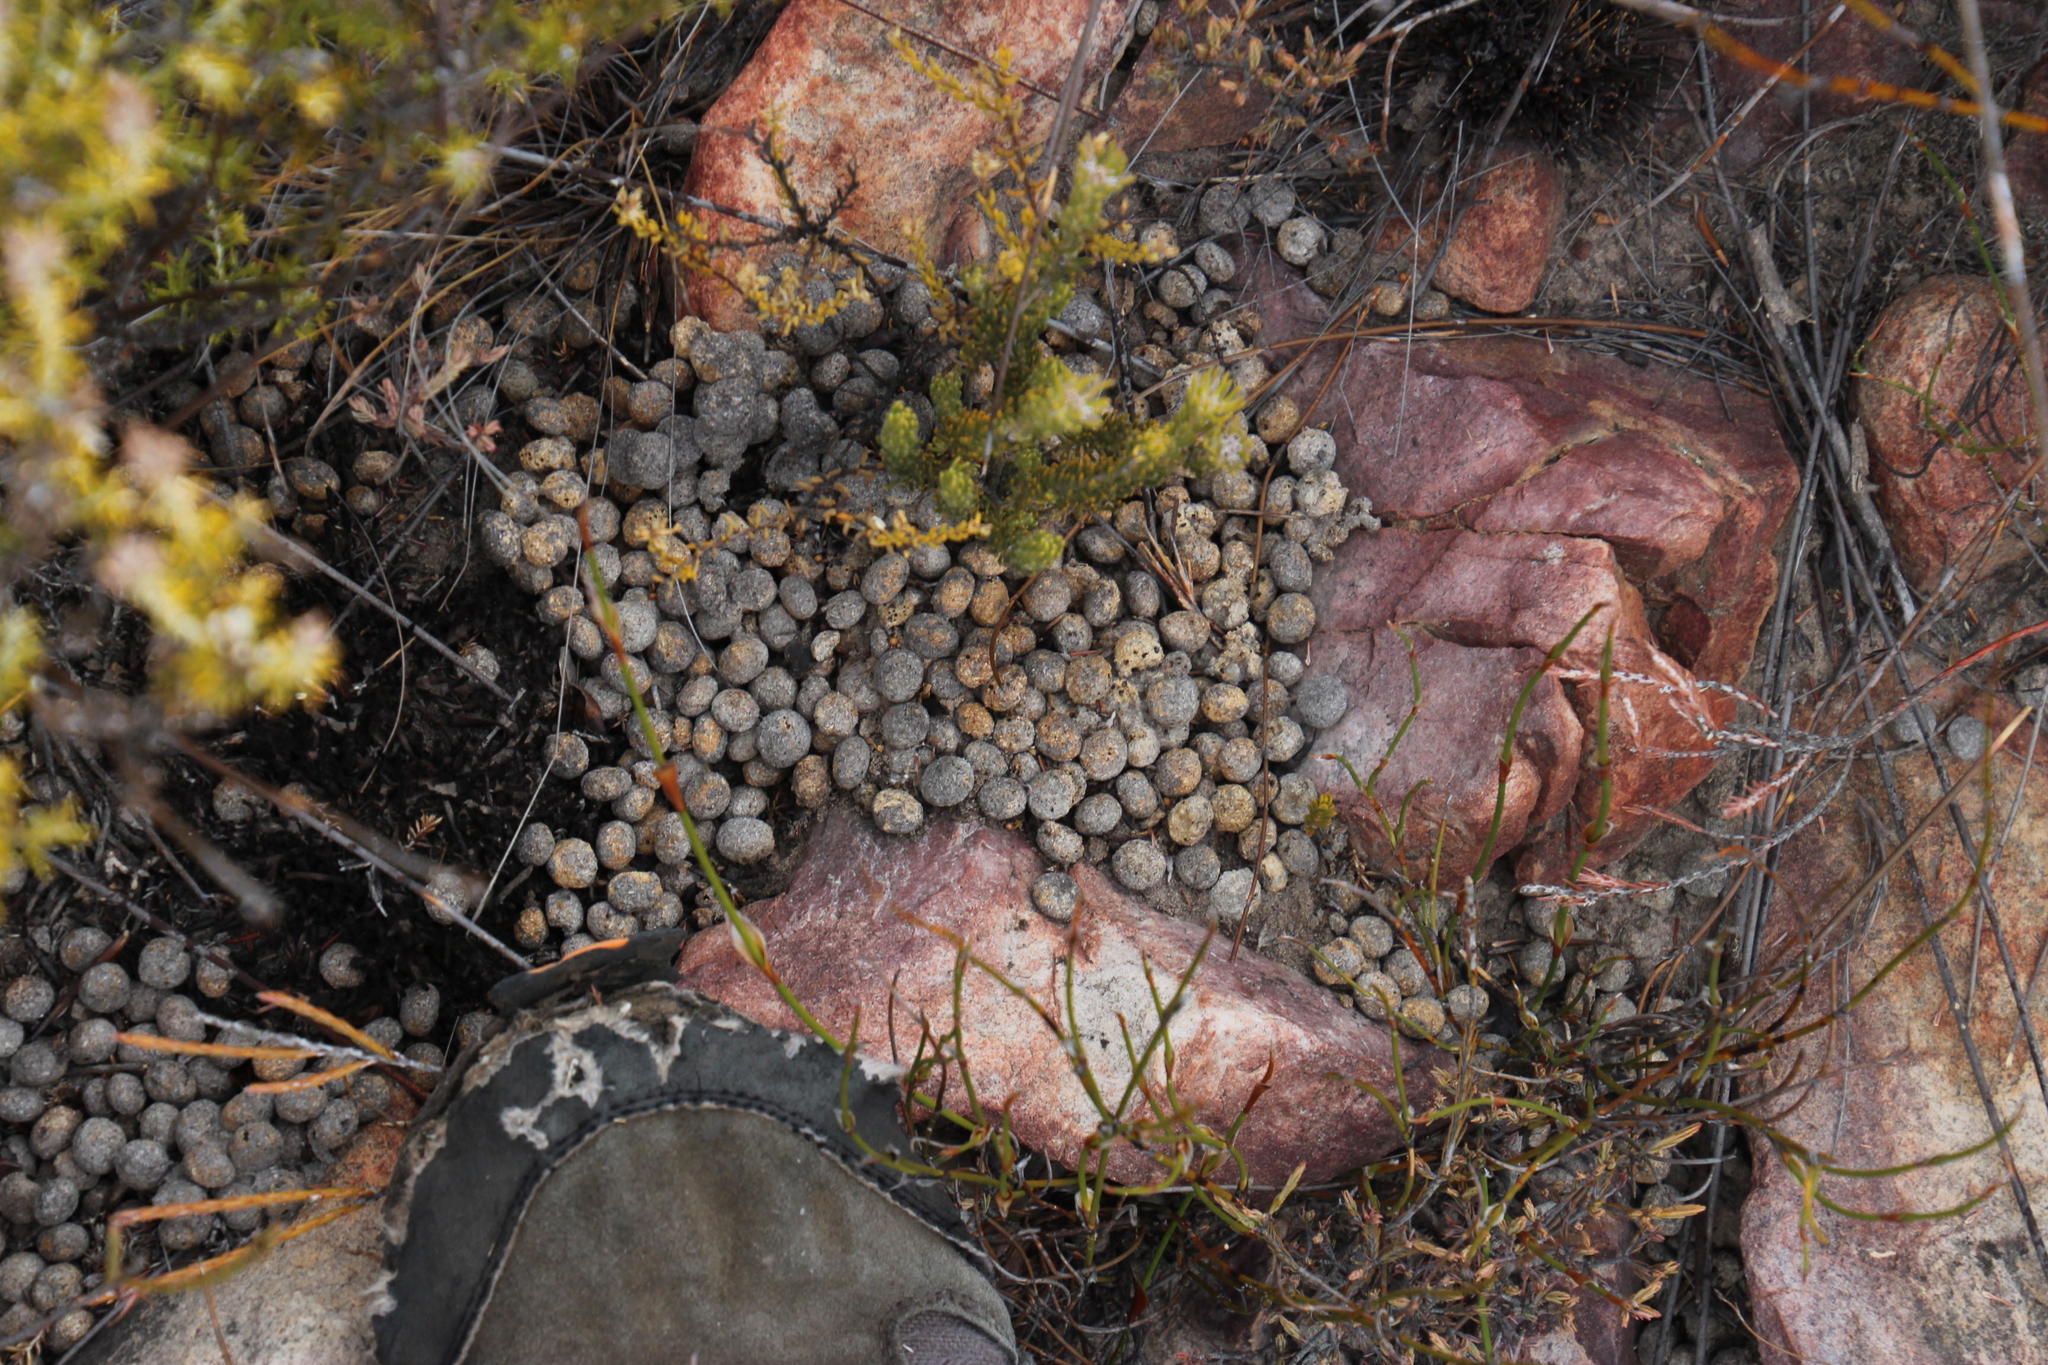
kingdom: Animalia
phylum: Chordata
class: Mammalia
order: Lagomorpha
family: Leporidae
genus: Pronolagus
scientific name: Pronolagus saundersiae
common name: Hewitt's red rock hare
